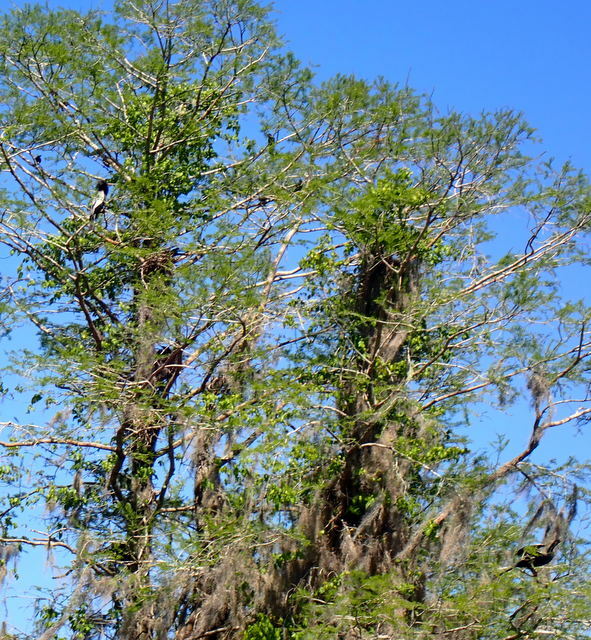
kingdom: Animalia
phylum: Chordata
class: Aves
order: Suliformes
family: Anhingidae
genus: Anhinga
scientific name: Anhinga anhinga
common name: Anhinga
